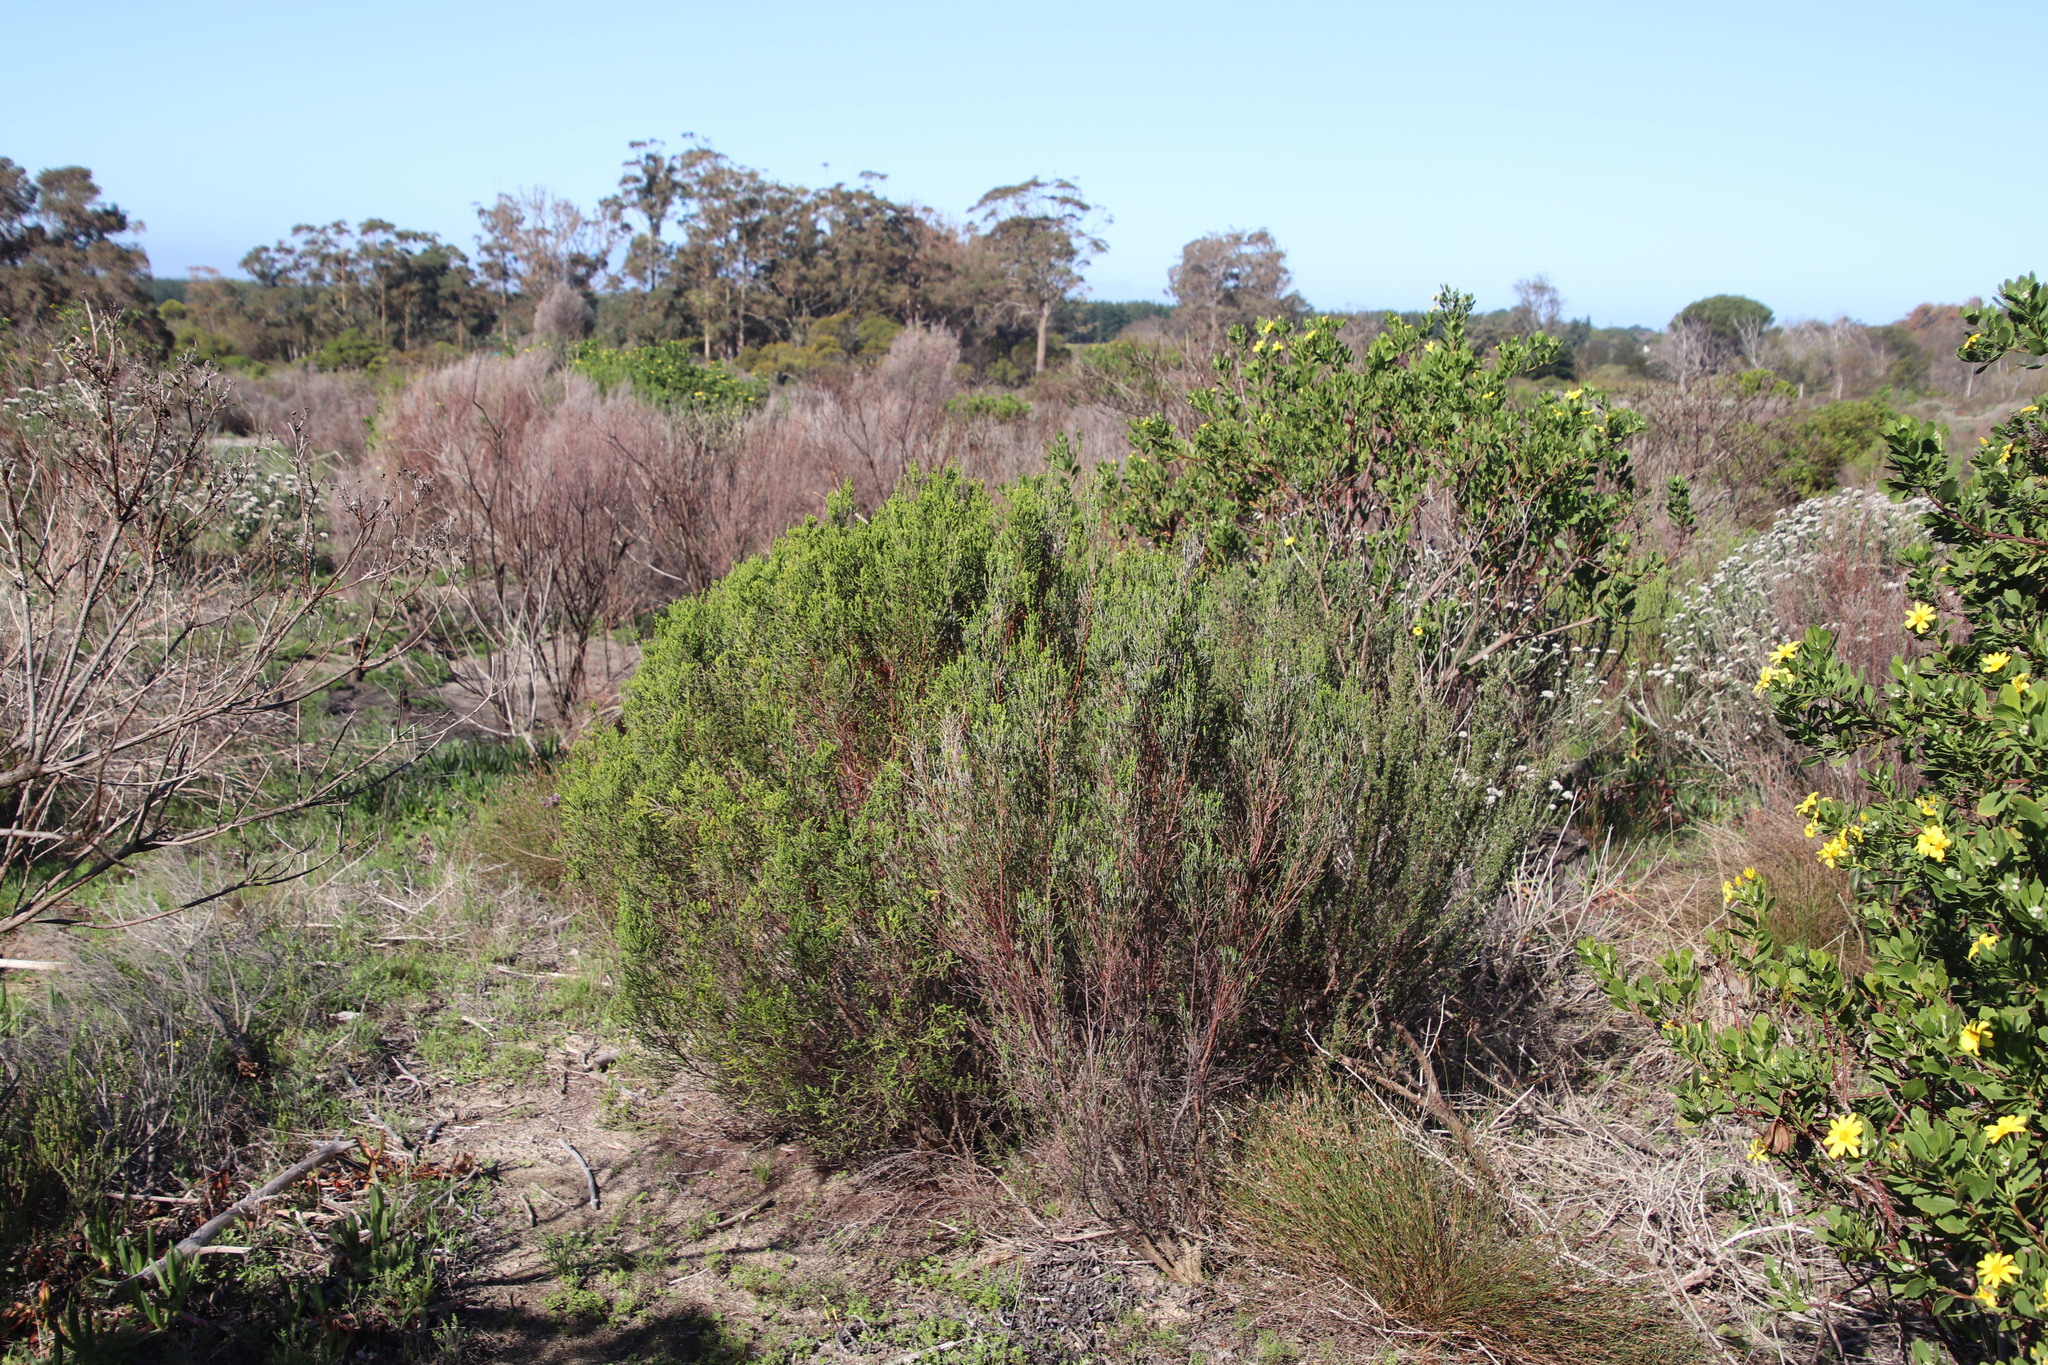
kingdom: Plantae
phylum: Tracheophyta
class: Magnoliopsida
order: Malvales
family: Thymelaeaceae
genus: Passerina
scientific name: Passerina corymbosa
